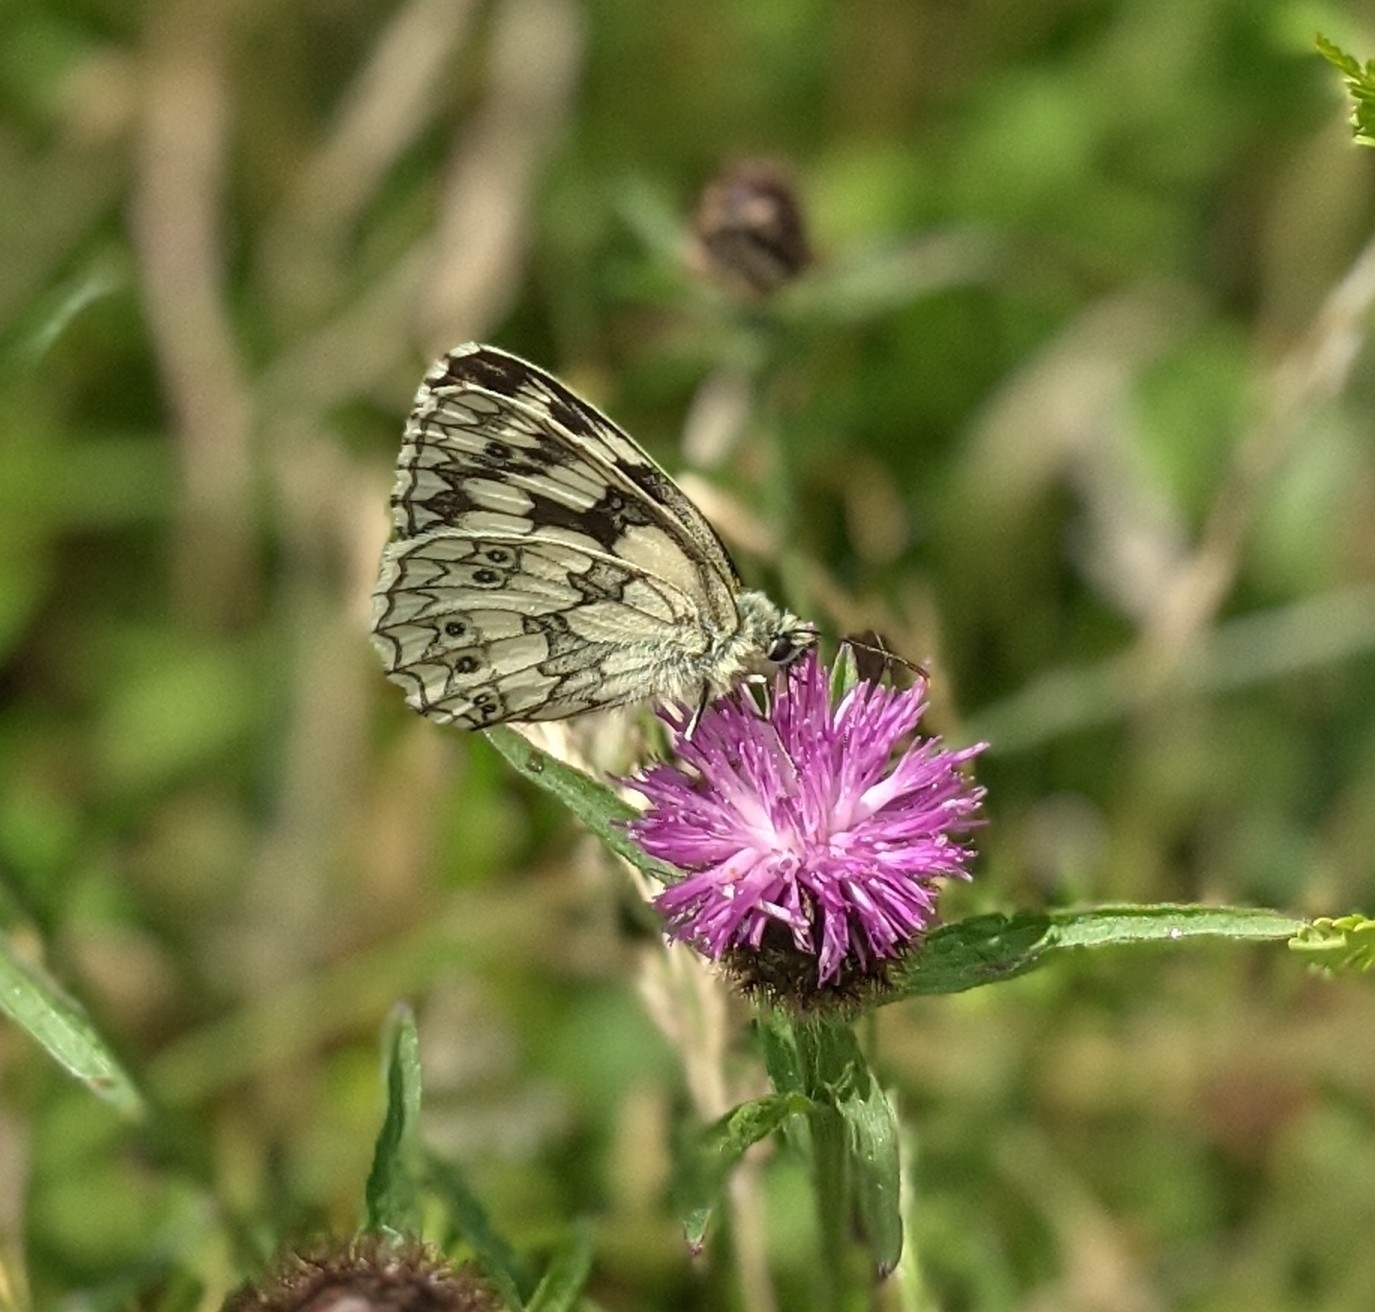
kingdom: Animalia
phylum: Arthropoda
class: Insecta
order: Lepidoptera
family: Nymphalidae
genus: Melanargia
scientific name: Melanargia galathea
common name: Marbled white
